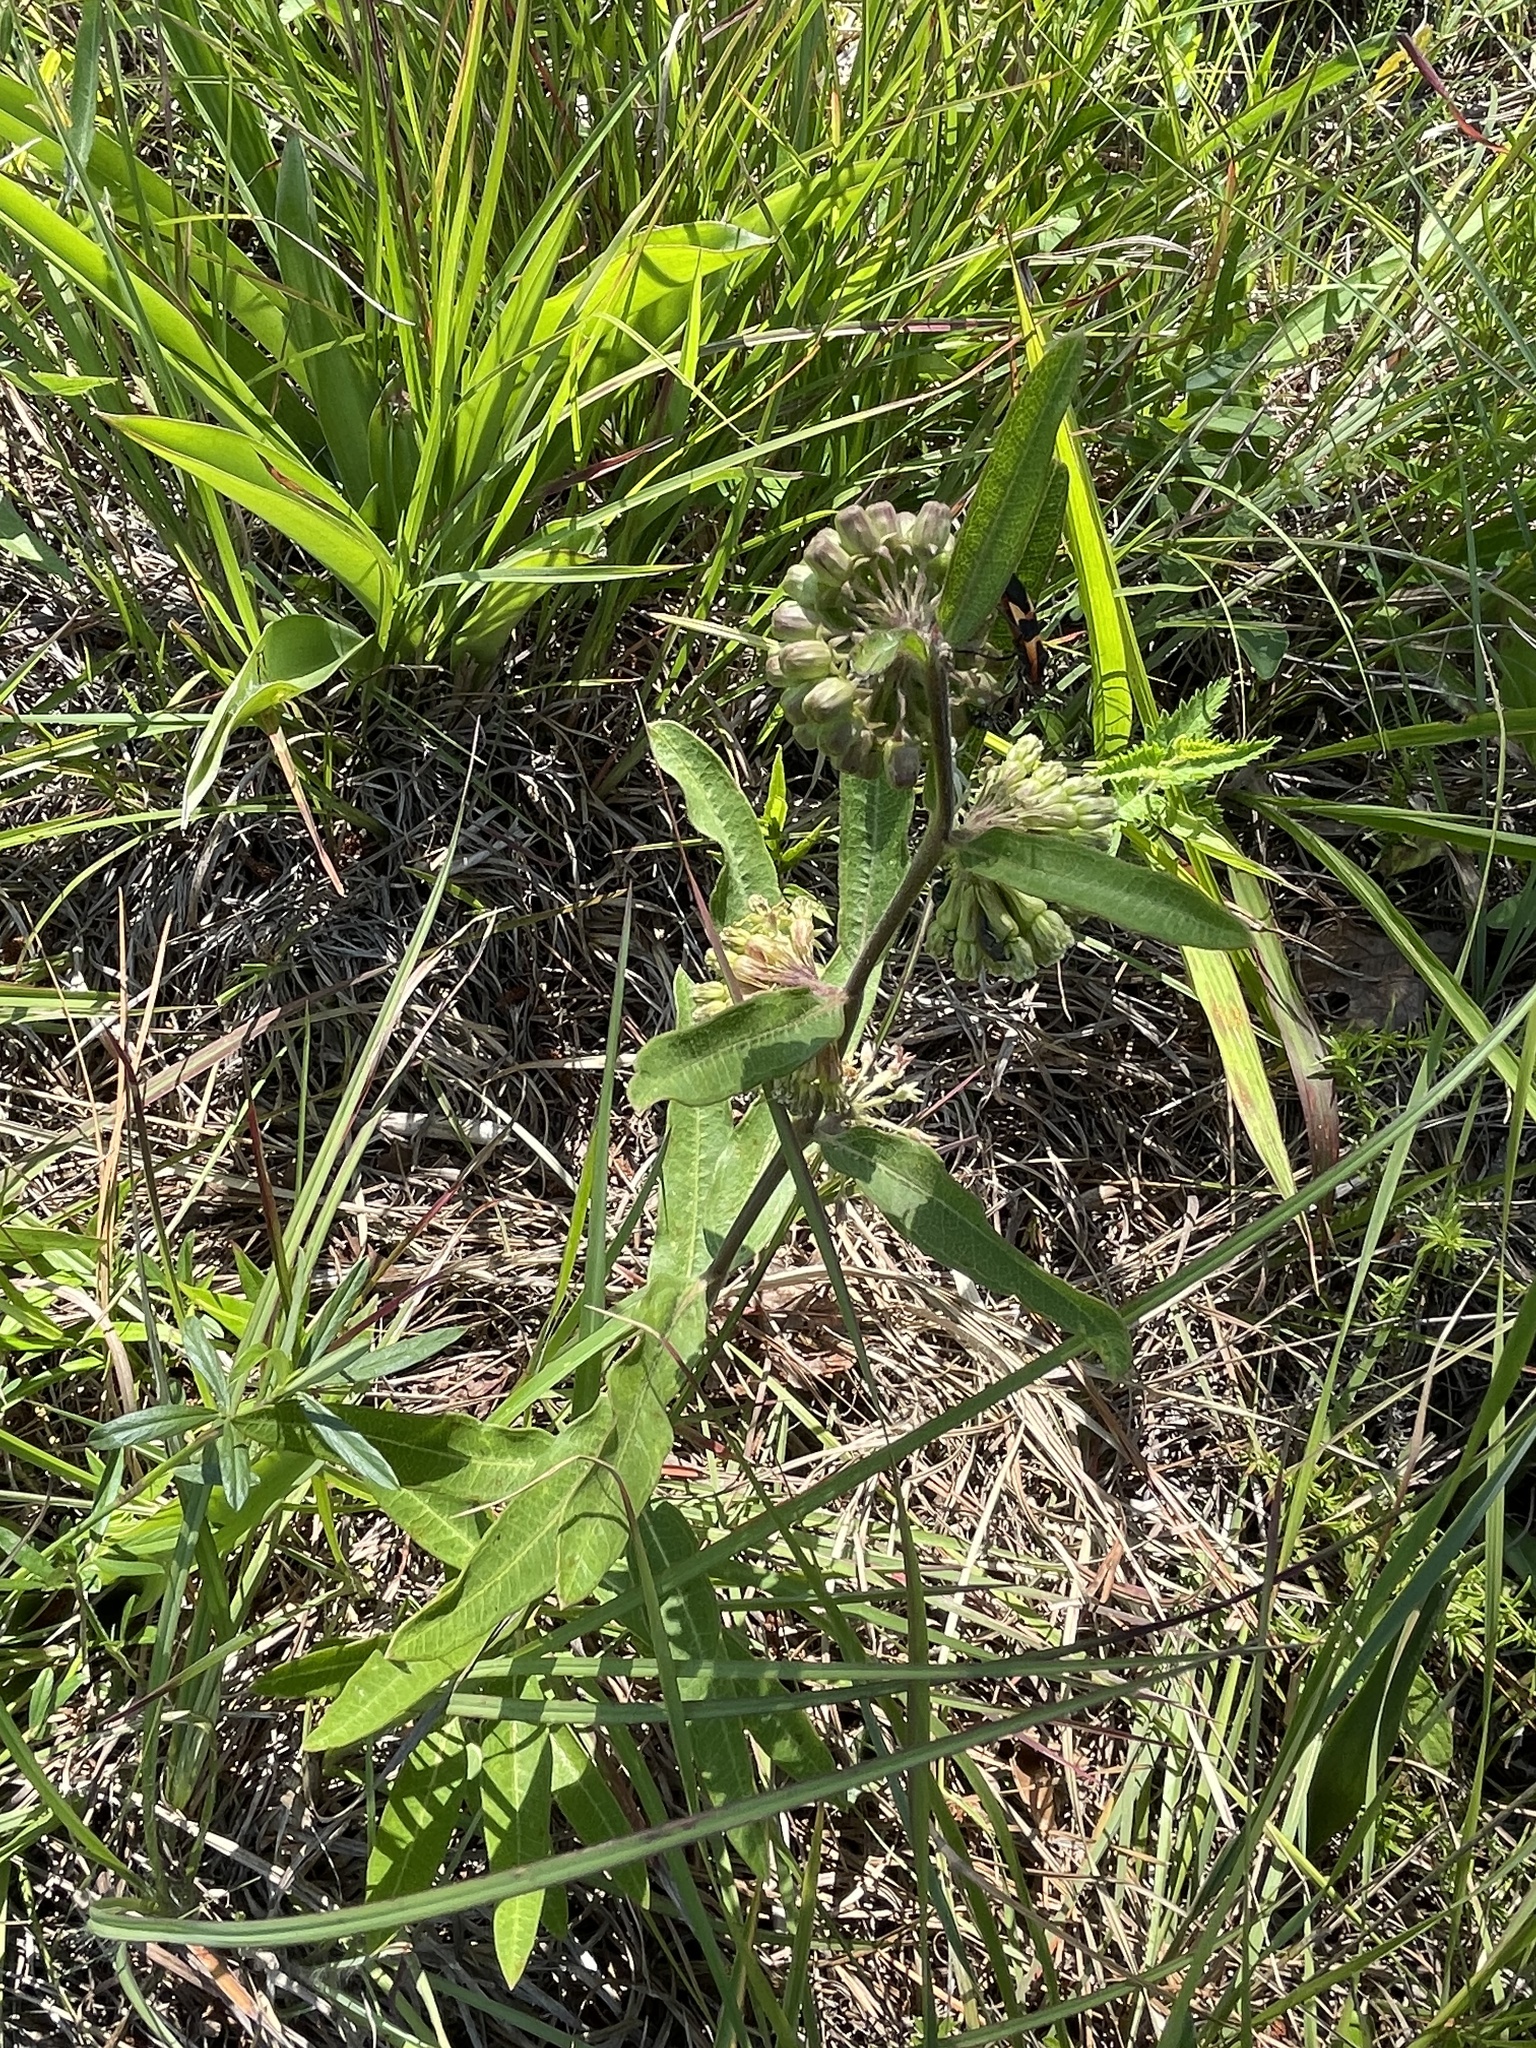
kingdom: Plantae
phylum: Tracheophyta
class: Magnoliopsida
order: Gentianales
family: Apocynaceae
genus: Asclepias
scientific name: Asclepias viridiflora
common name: Green comet milkweed
